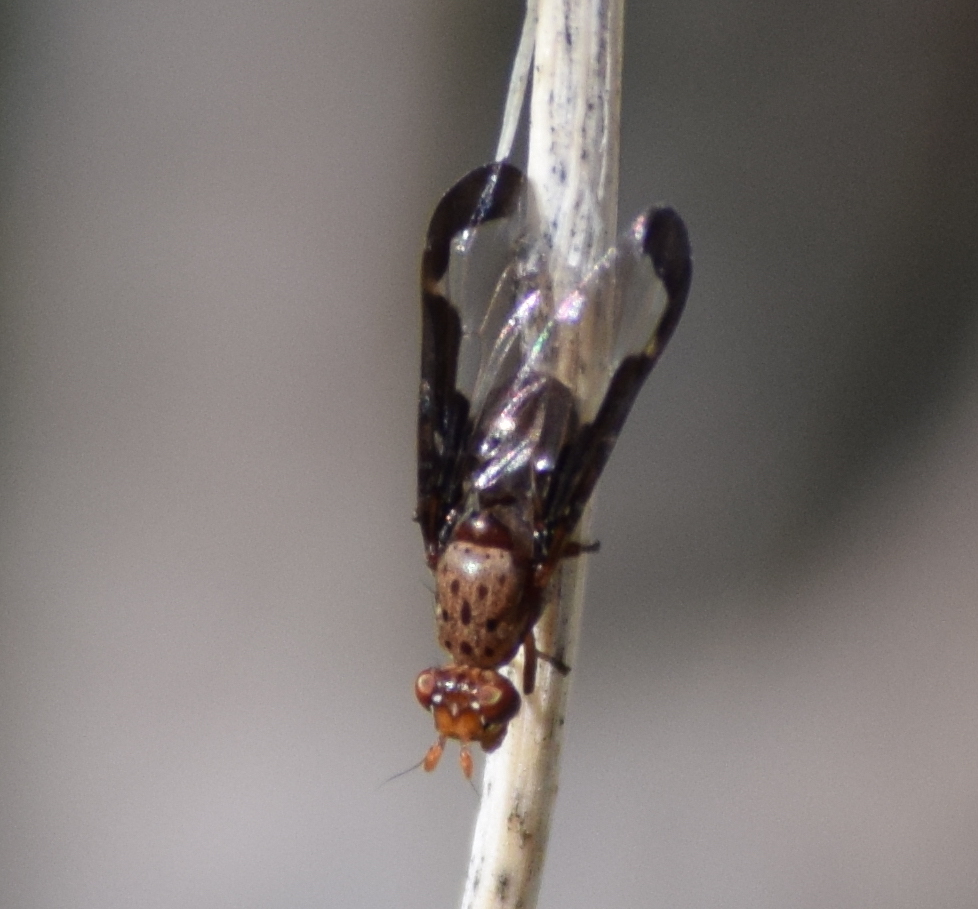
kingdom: Animalia
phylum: Arthropoda
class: Insecta
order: Diptera
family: Ulidiidae
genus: Diacrita
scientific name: Diacrita costalis
